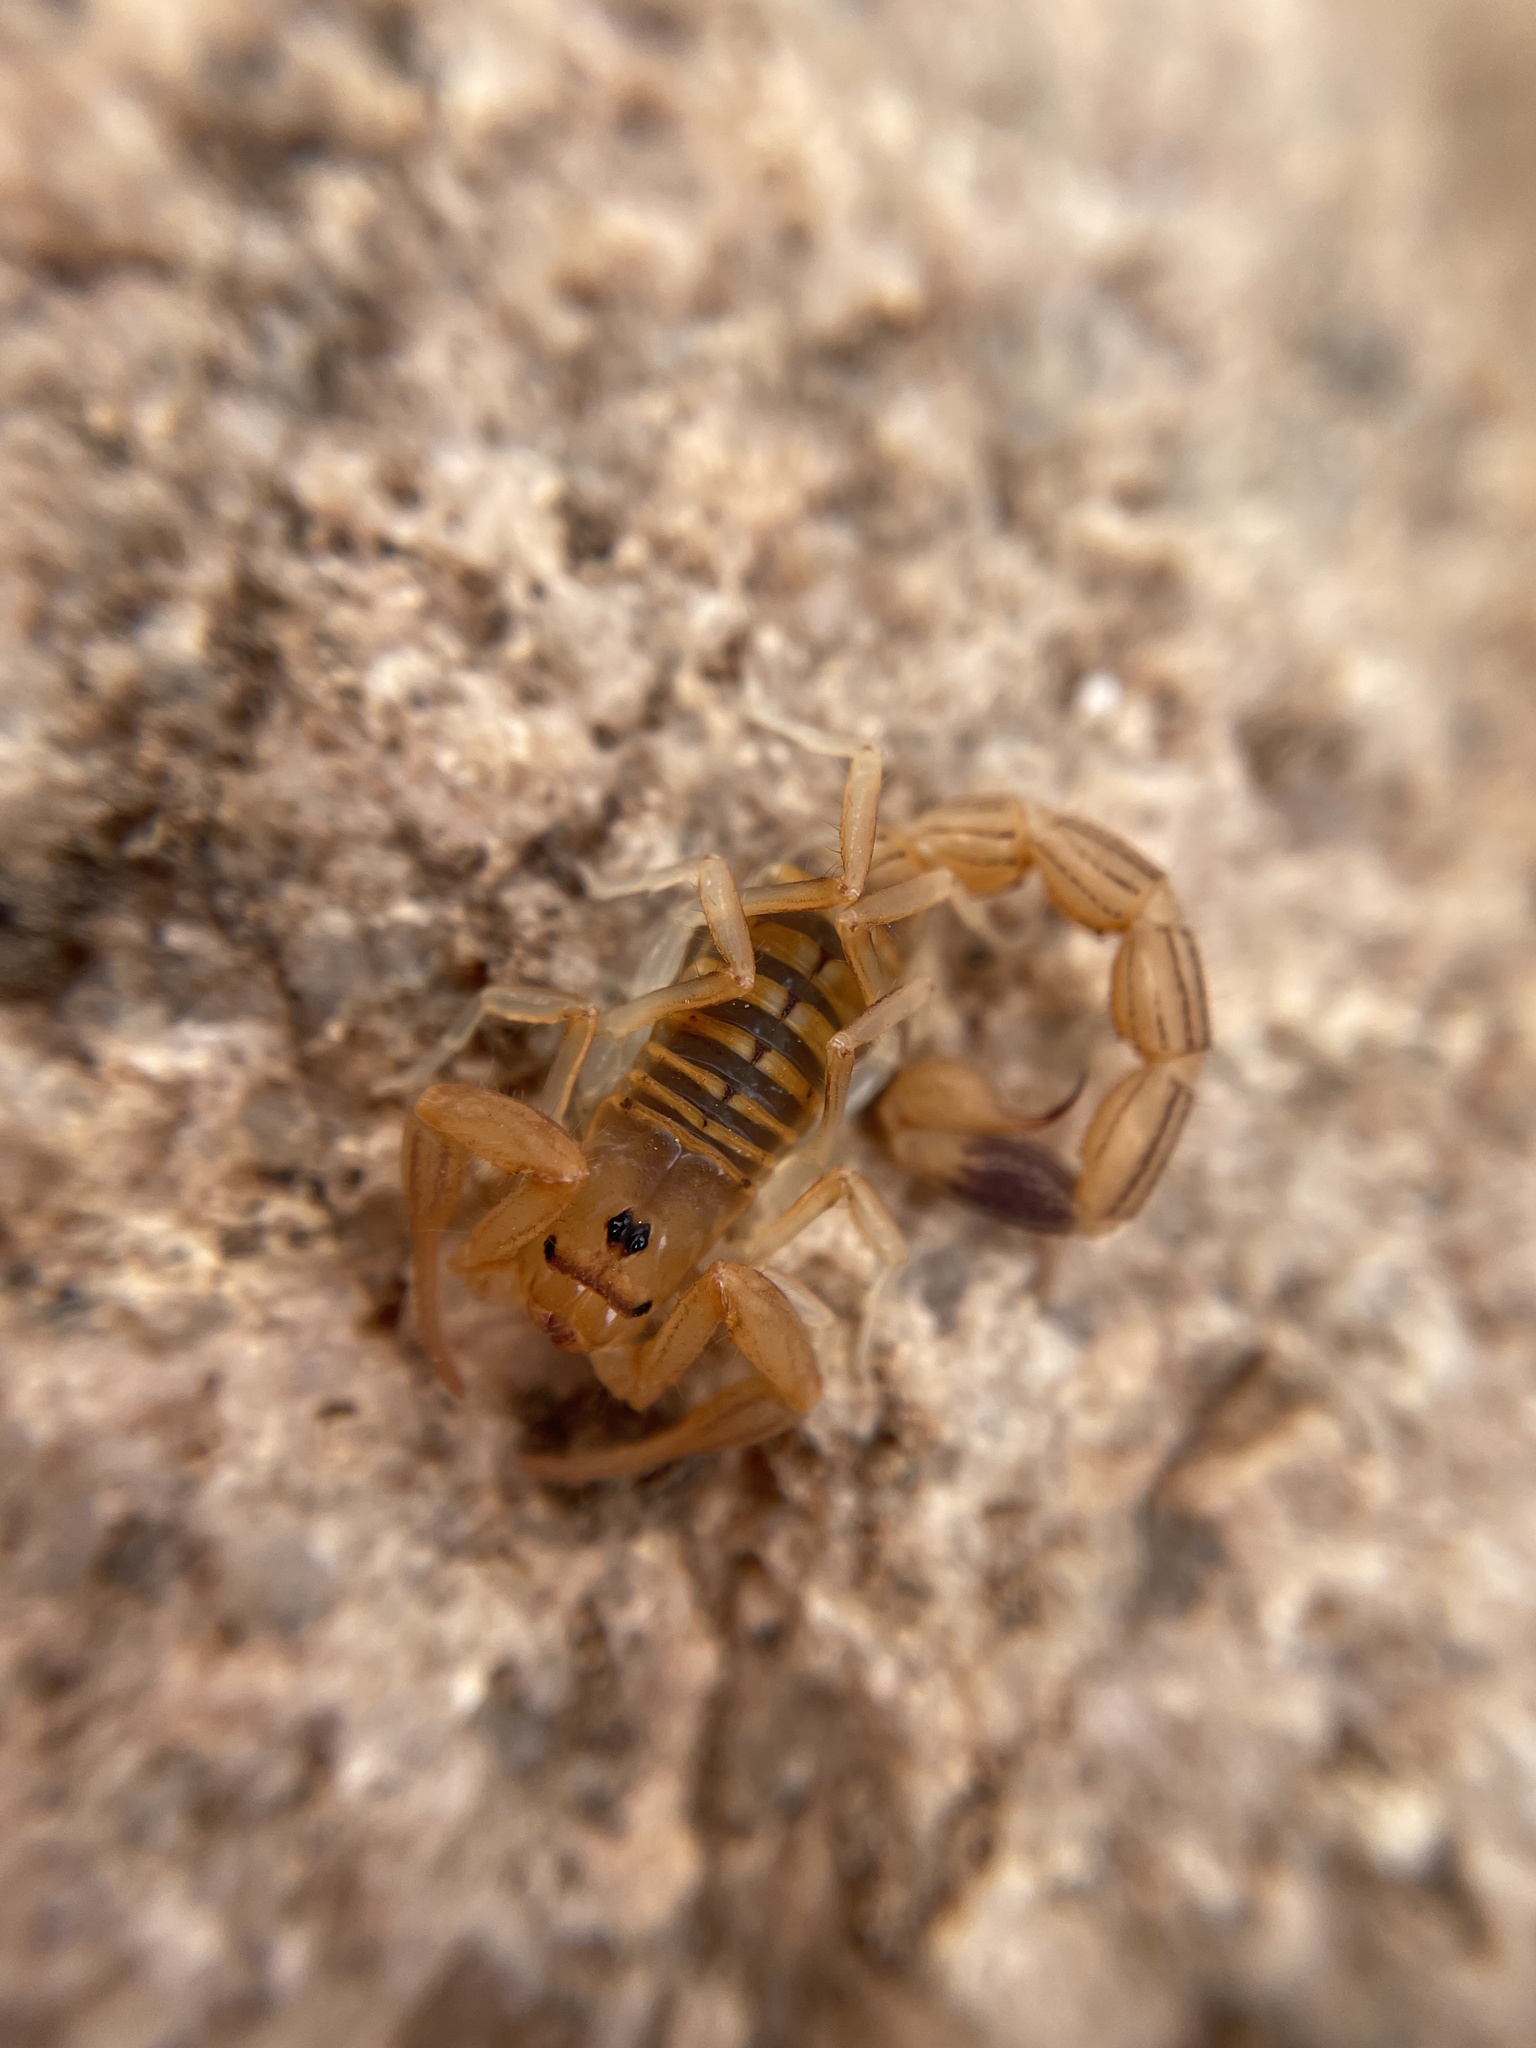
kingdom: Animalia
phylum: Arthropoda
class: Arachnida
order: Scorpiones
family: Buthidae
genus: Uroplectes
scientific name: Uroplectes carinatus
